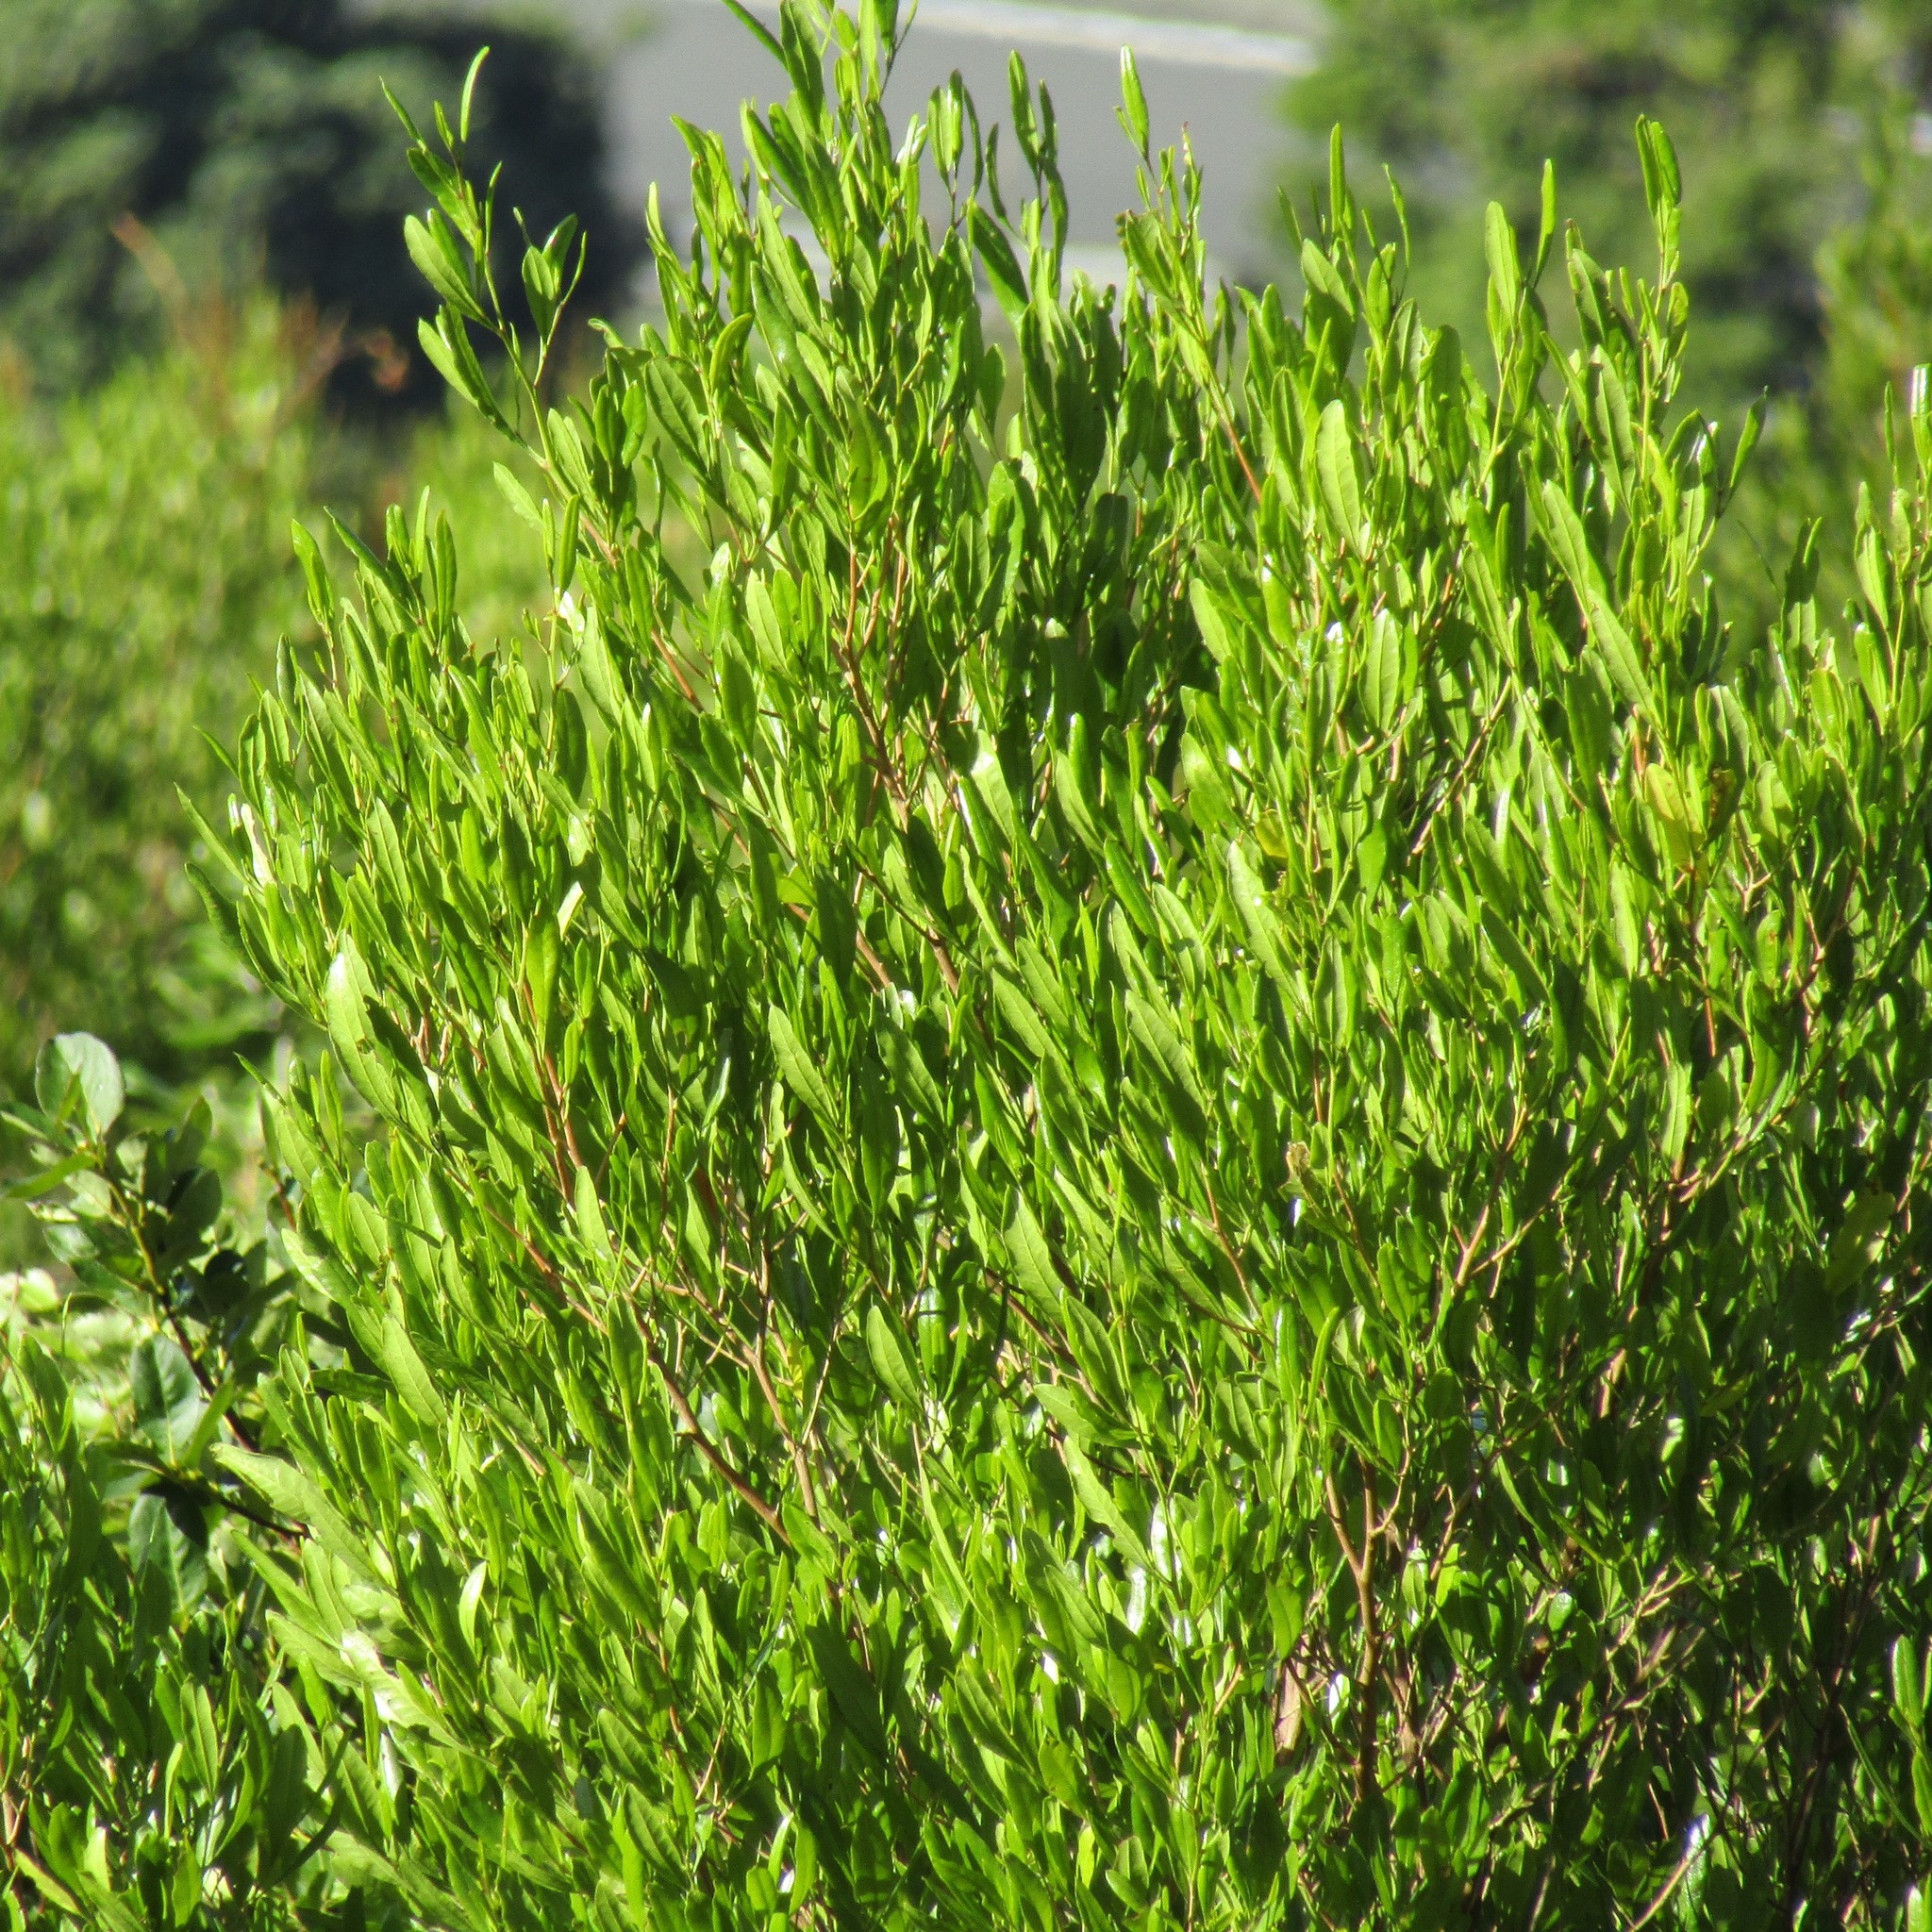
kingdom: Plantae
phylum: Tracheophyta
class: Magnoliopsida
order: Sapindales
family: Sapindaceae
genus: Dodonaea
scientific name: Dodonaea viscosa
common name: Hopbush
